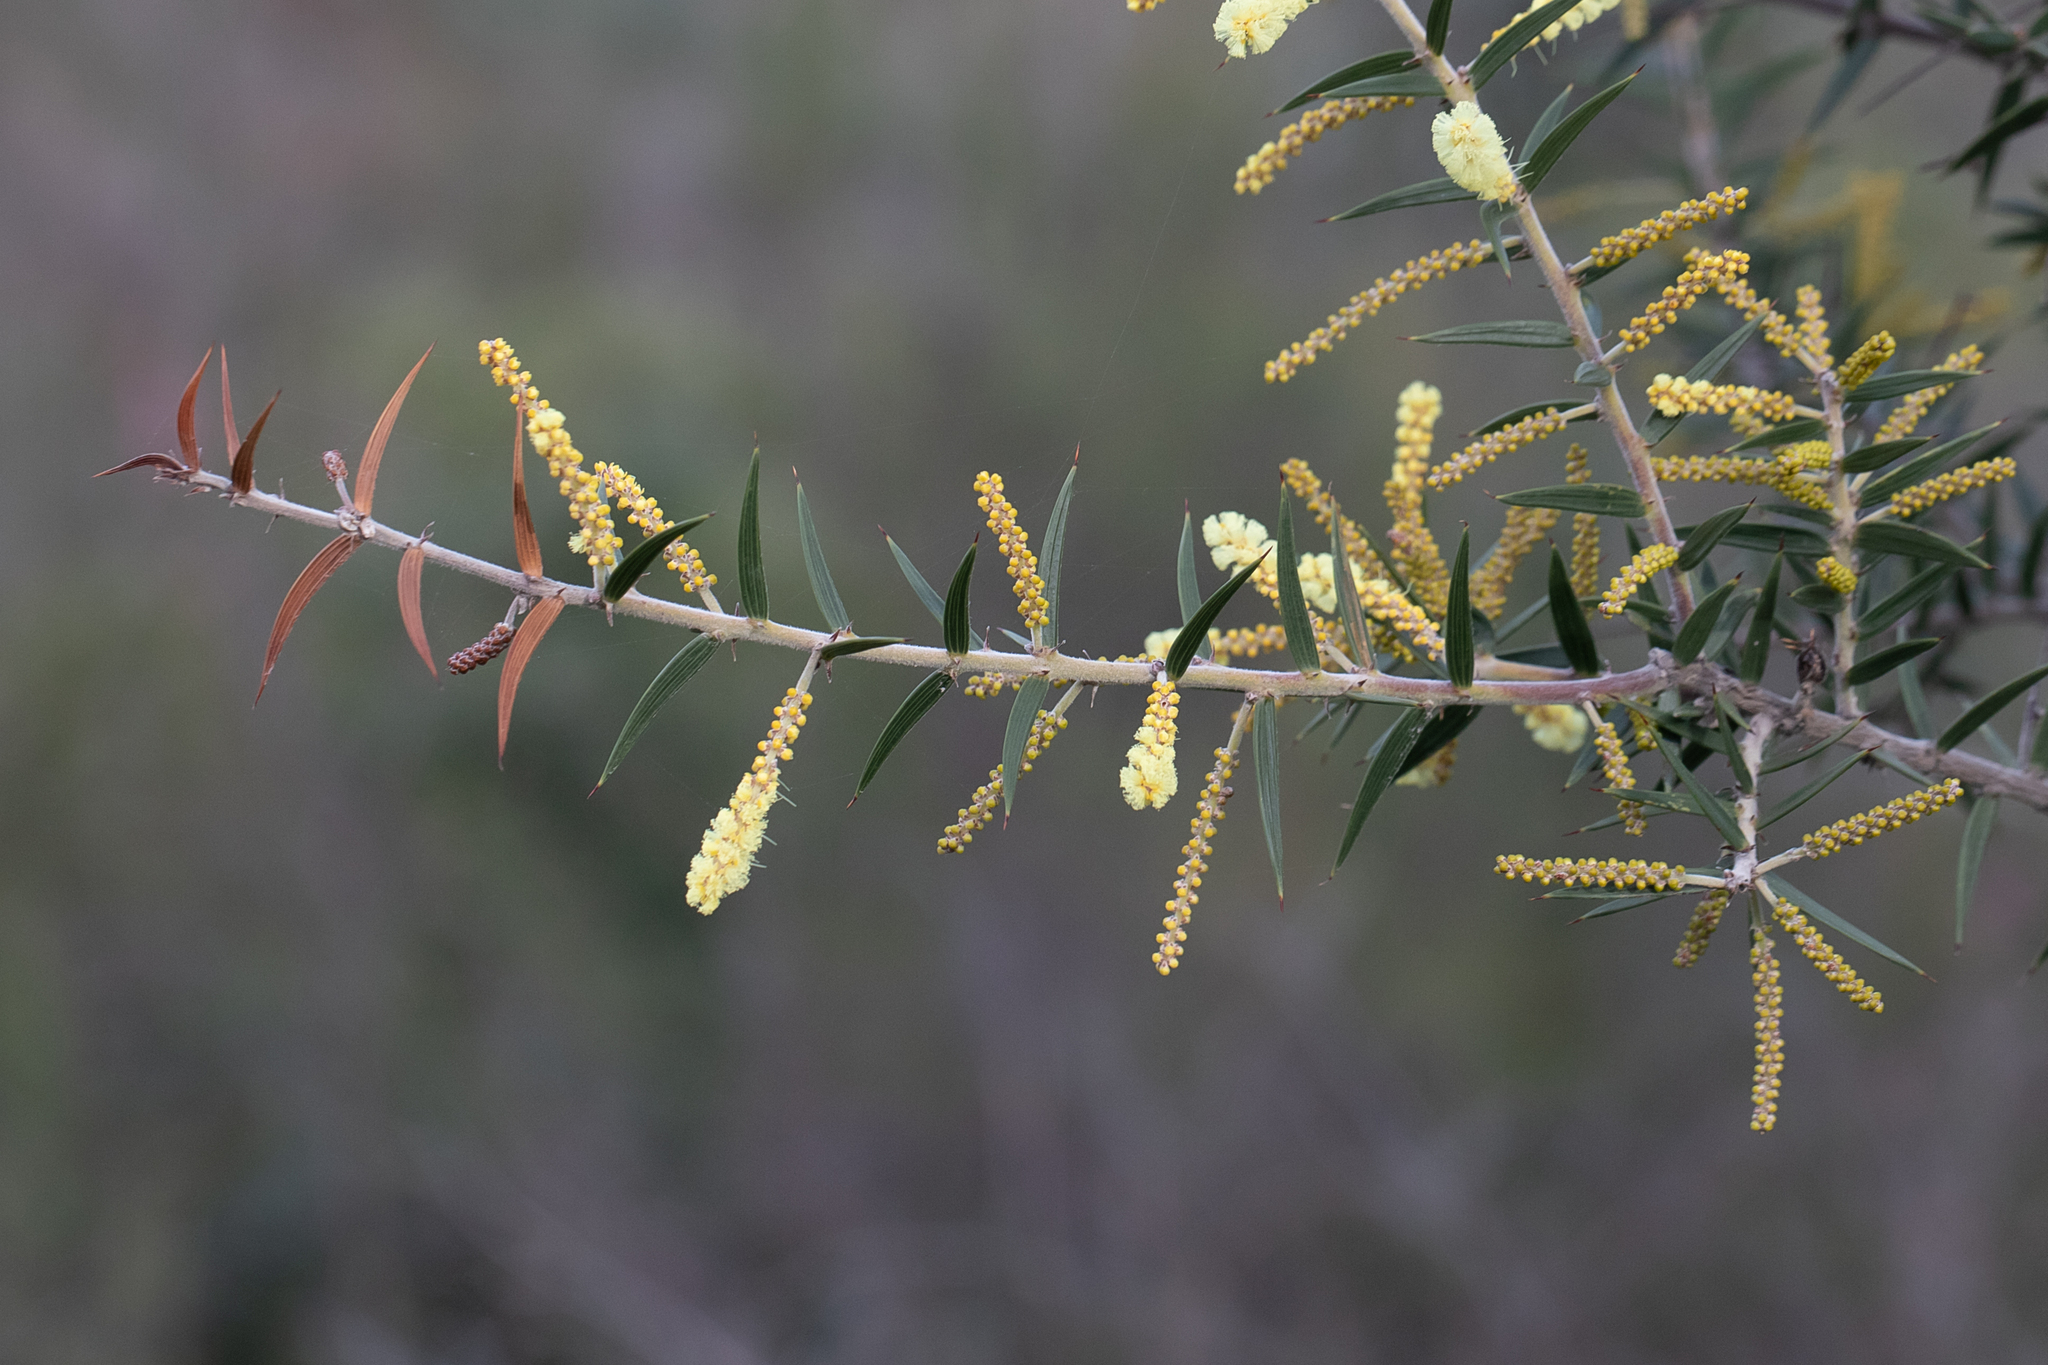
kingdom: Plantae
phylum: Tracheophyta
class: Magnoliopsida
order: Fabales
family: Fabaceae
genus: Acacia
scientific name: Acacia oxycedrus
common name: Spike wattle
